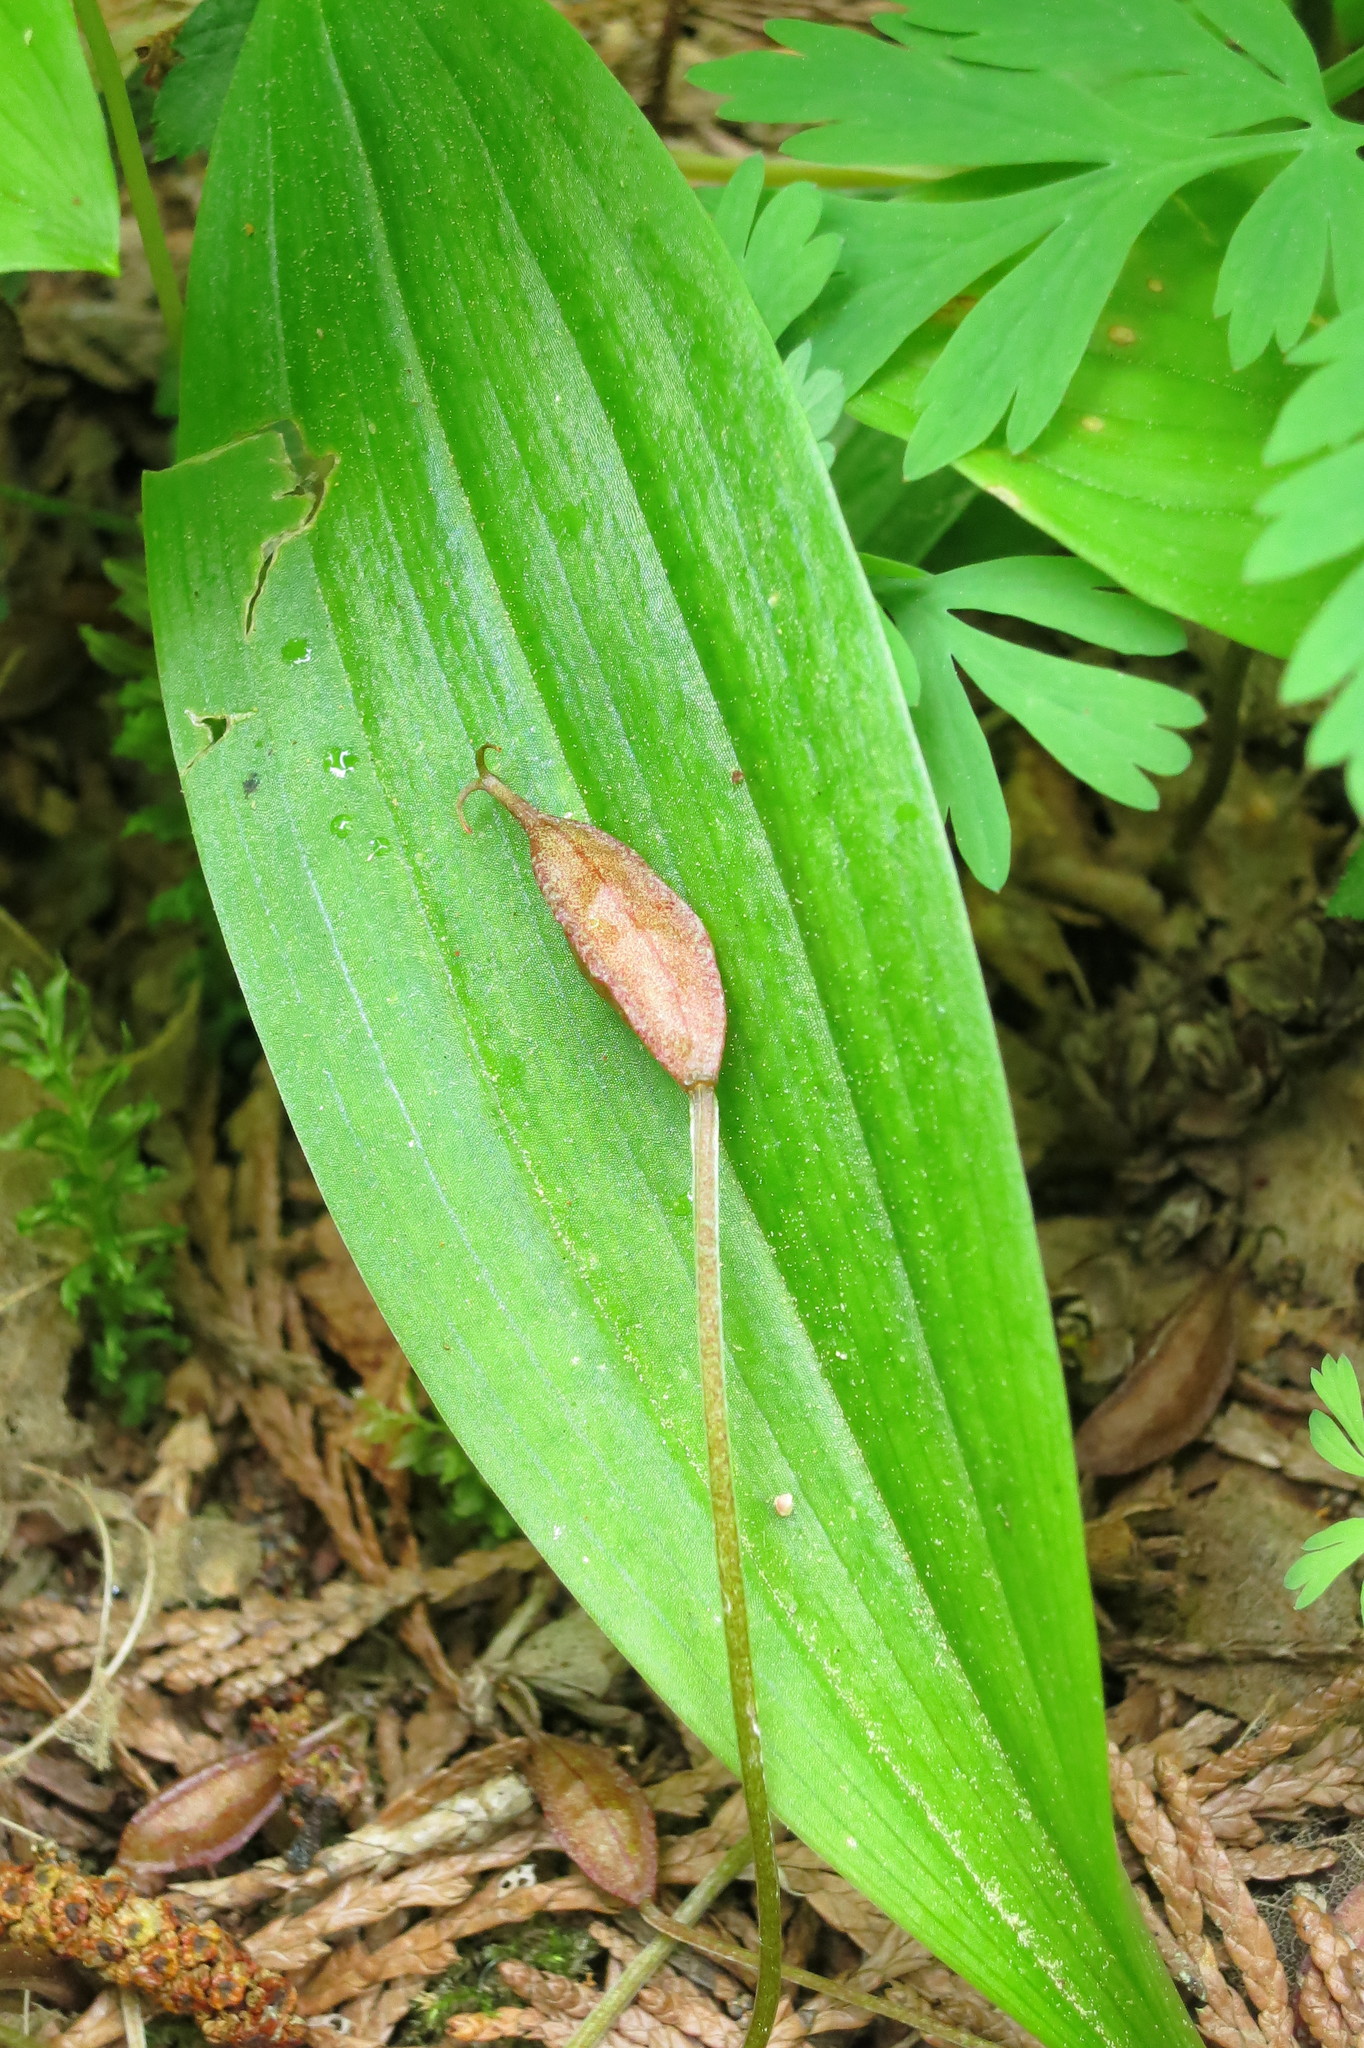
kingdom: Plantae
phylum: Tracheophyta
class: Liliopsida
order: Liliales
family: Liliaceae
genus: Scoliopus
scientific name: Scoliopus hallii
